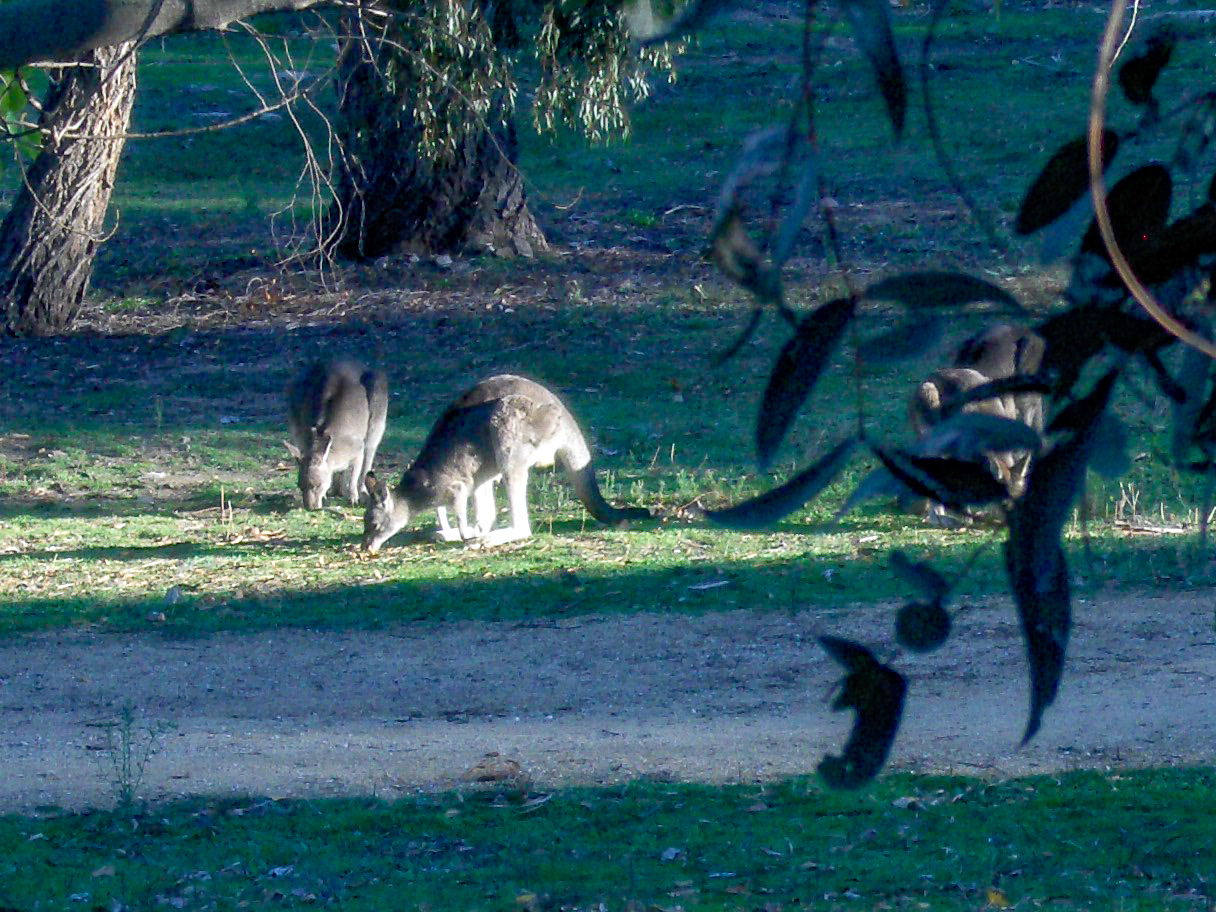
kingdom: Animalia
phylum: Chordata
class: Mammalia
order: Diprotodontia
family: Macropodidae
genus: Macropus
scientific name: Macropus giganteus
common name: Eastern grey kangaroo
